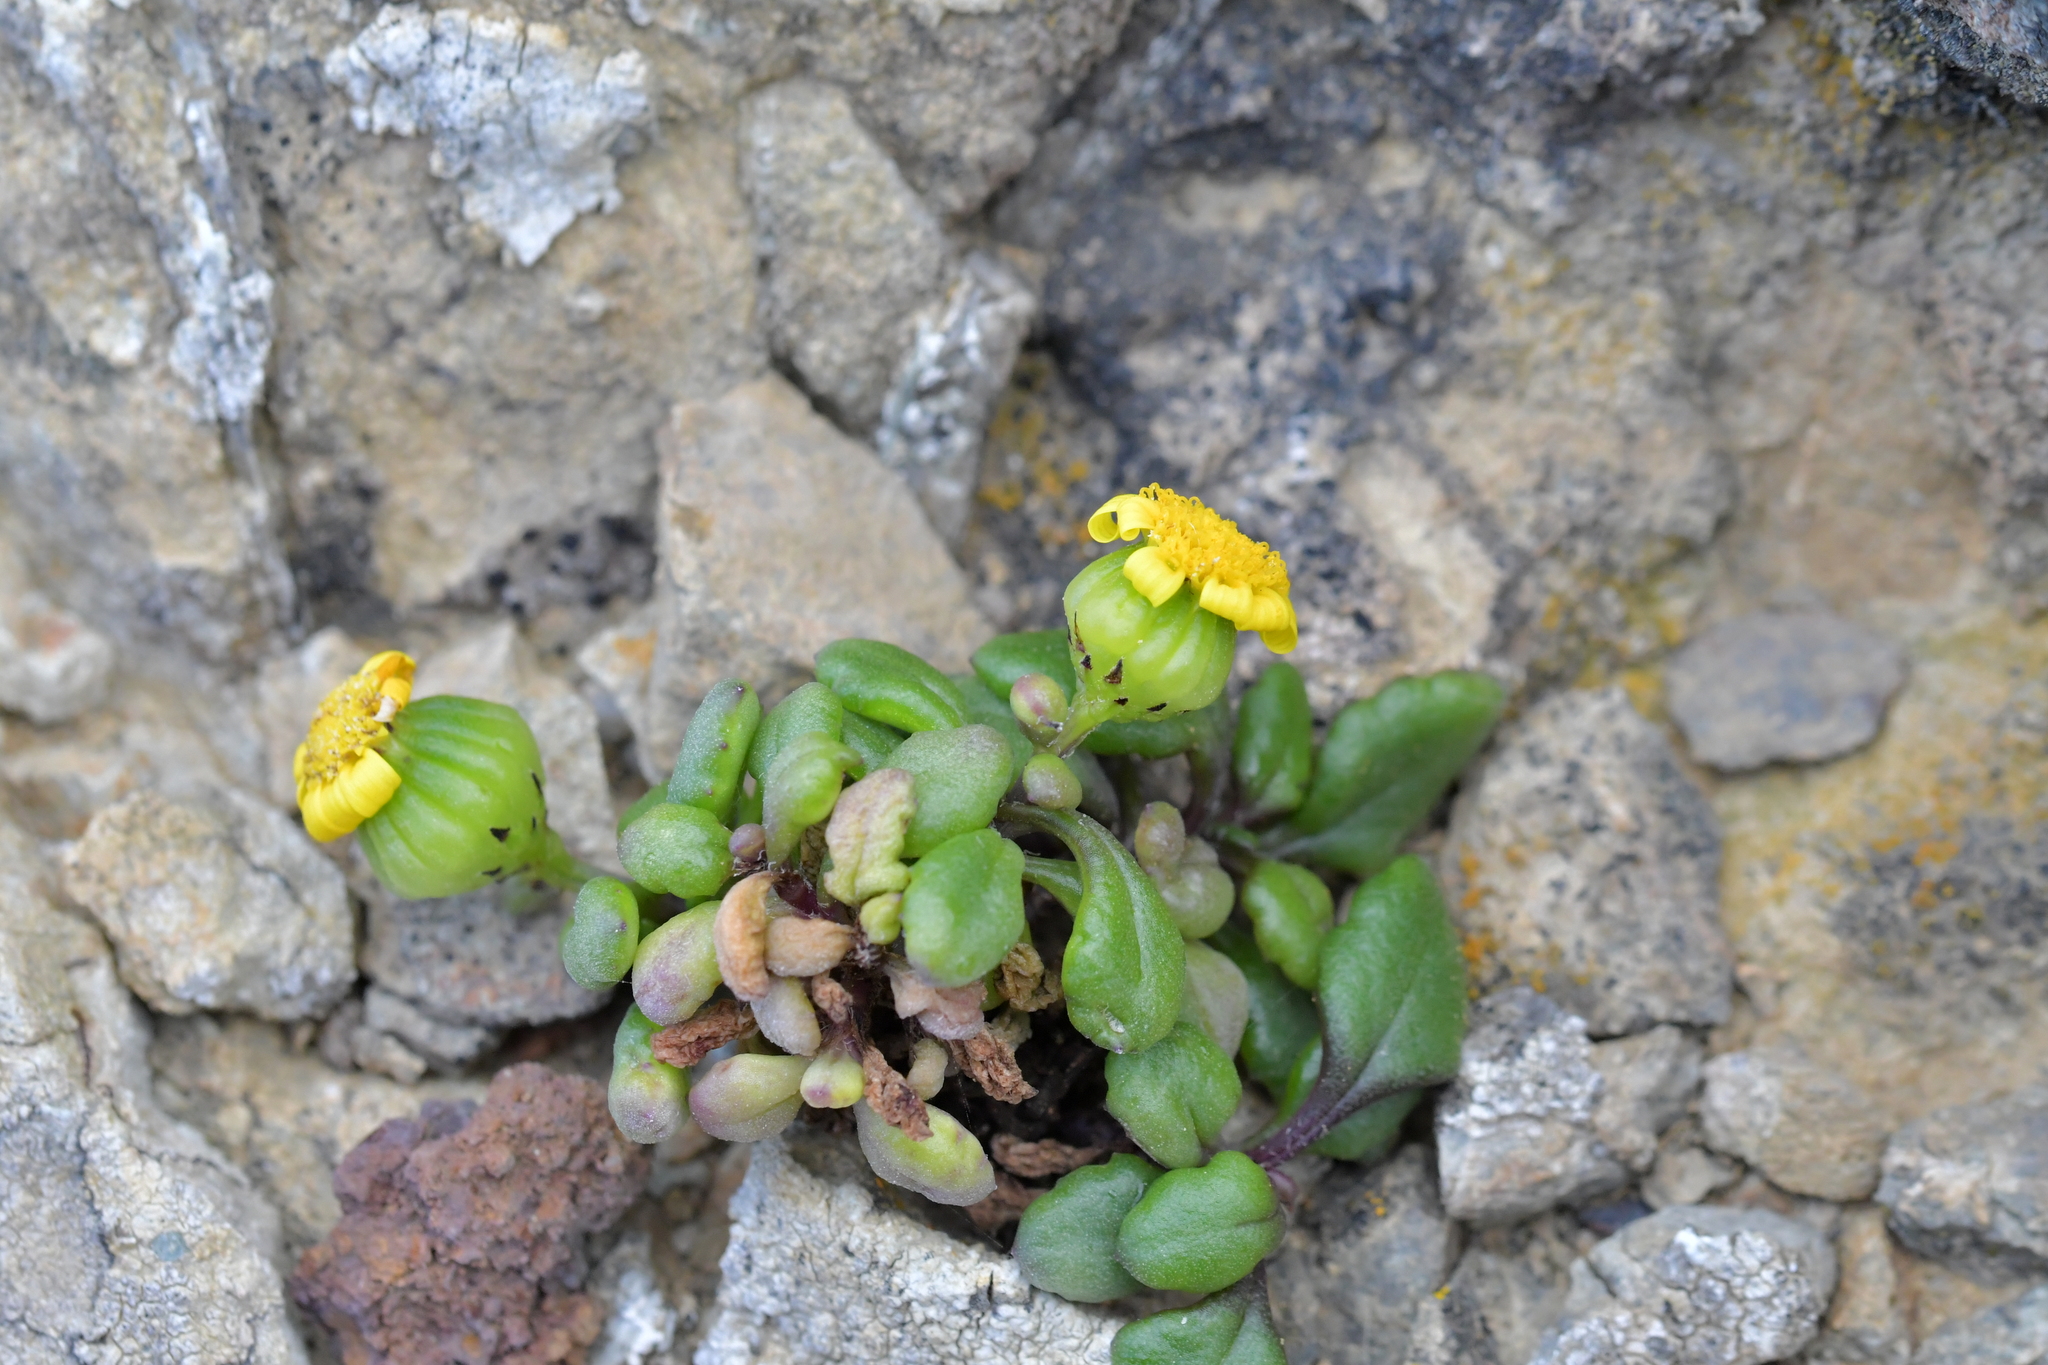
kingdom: Plantae
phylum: Tracheophyta
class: Magnoliopsida
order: Asterales
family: Asteraceae
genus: Senecio
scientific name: Senecio lautus
